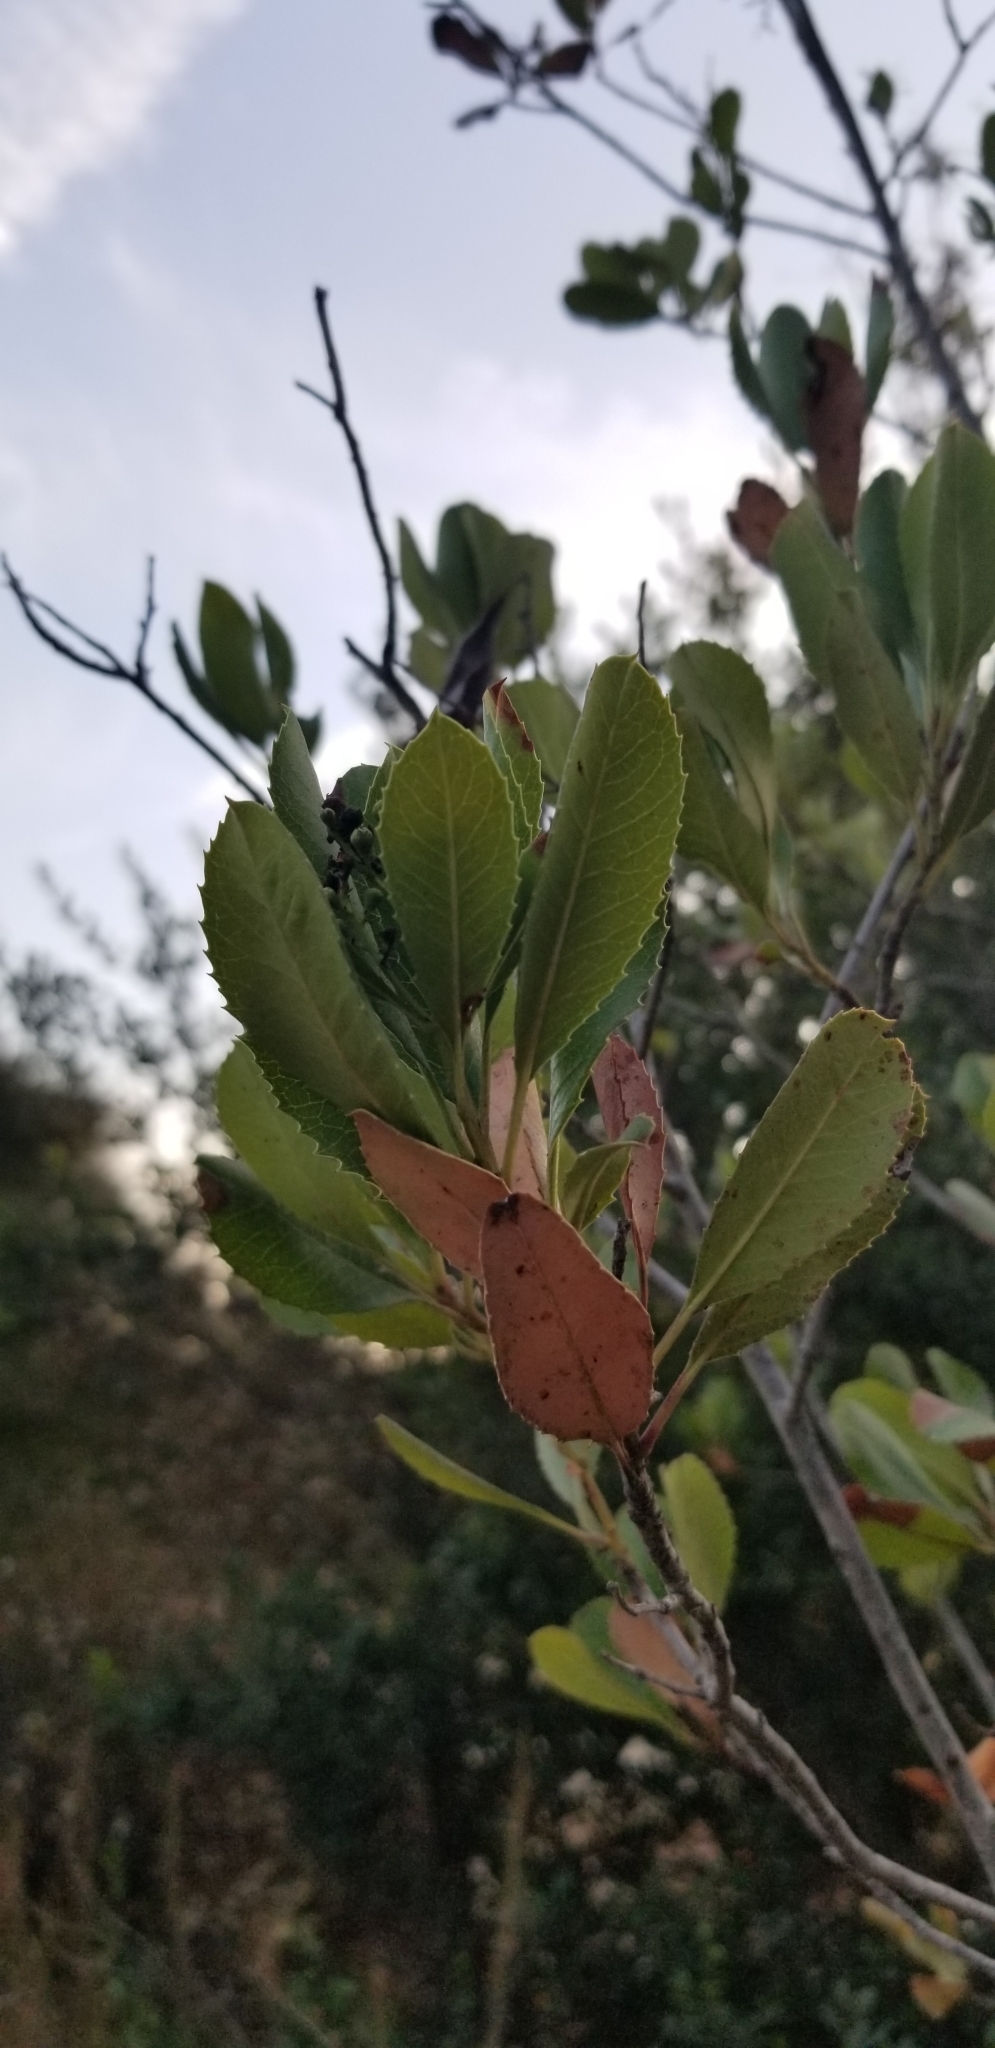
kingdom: Plantae
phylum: Tracheophyta
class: Magnoliopsida
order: Rosales
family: Rosaceae
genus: Heteromeles
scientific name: Heteromeles arbutifolia
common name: California-holly
